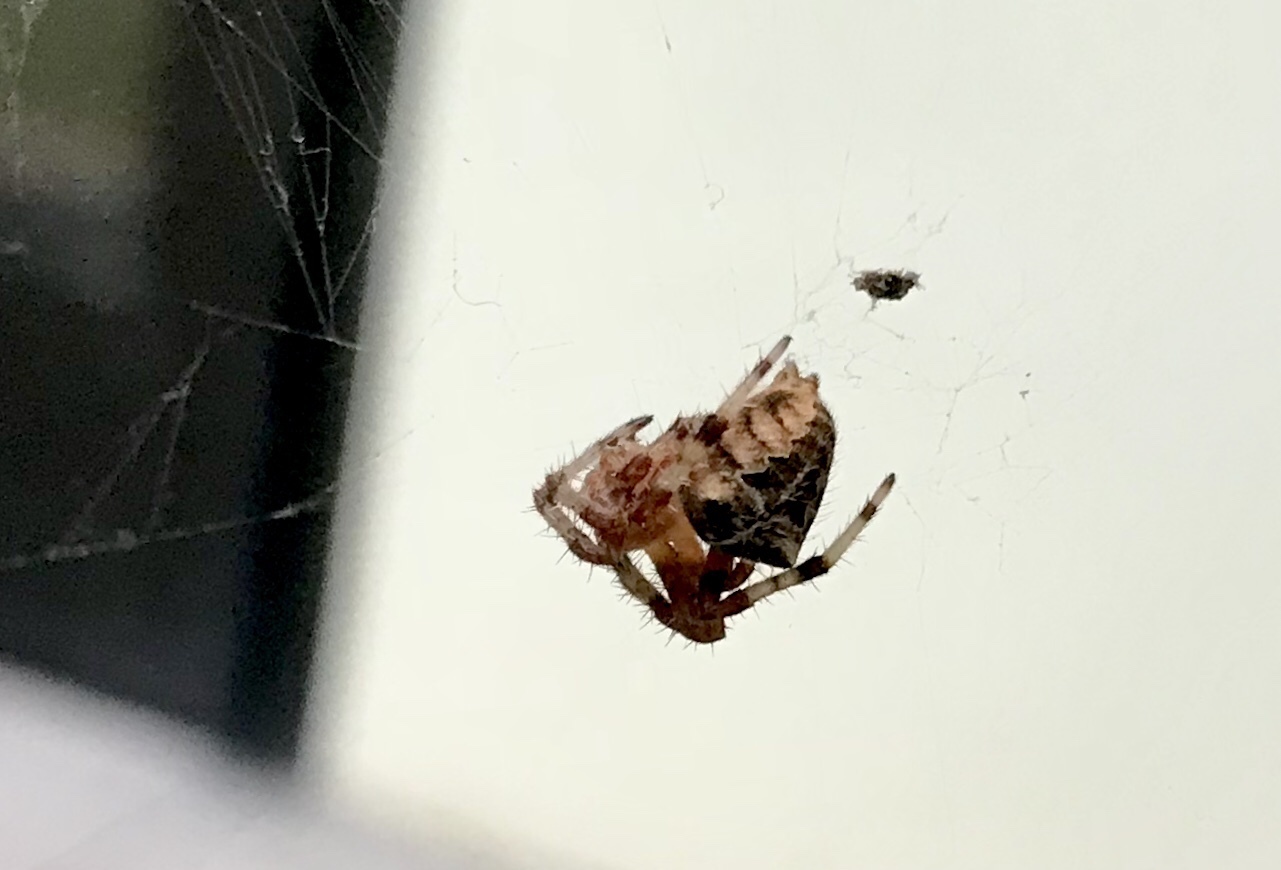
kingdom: Animalia
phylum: Arthropoda
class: Arachnida
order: Araneae
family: Araneidae
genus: Araneus
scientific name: Araneus diadematus
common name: Cross orbweaver
